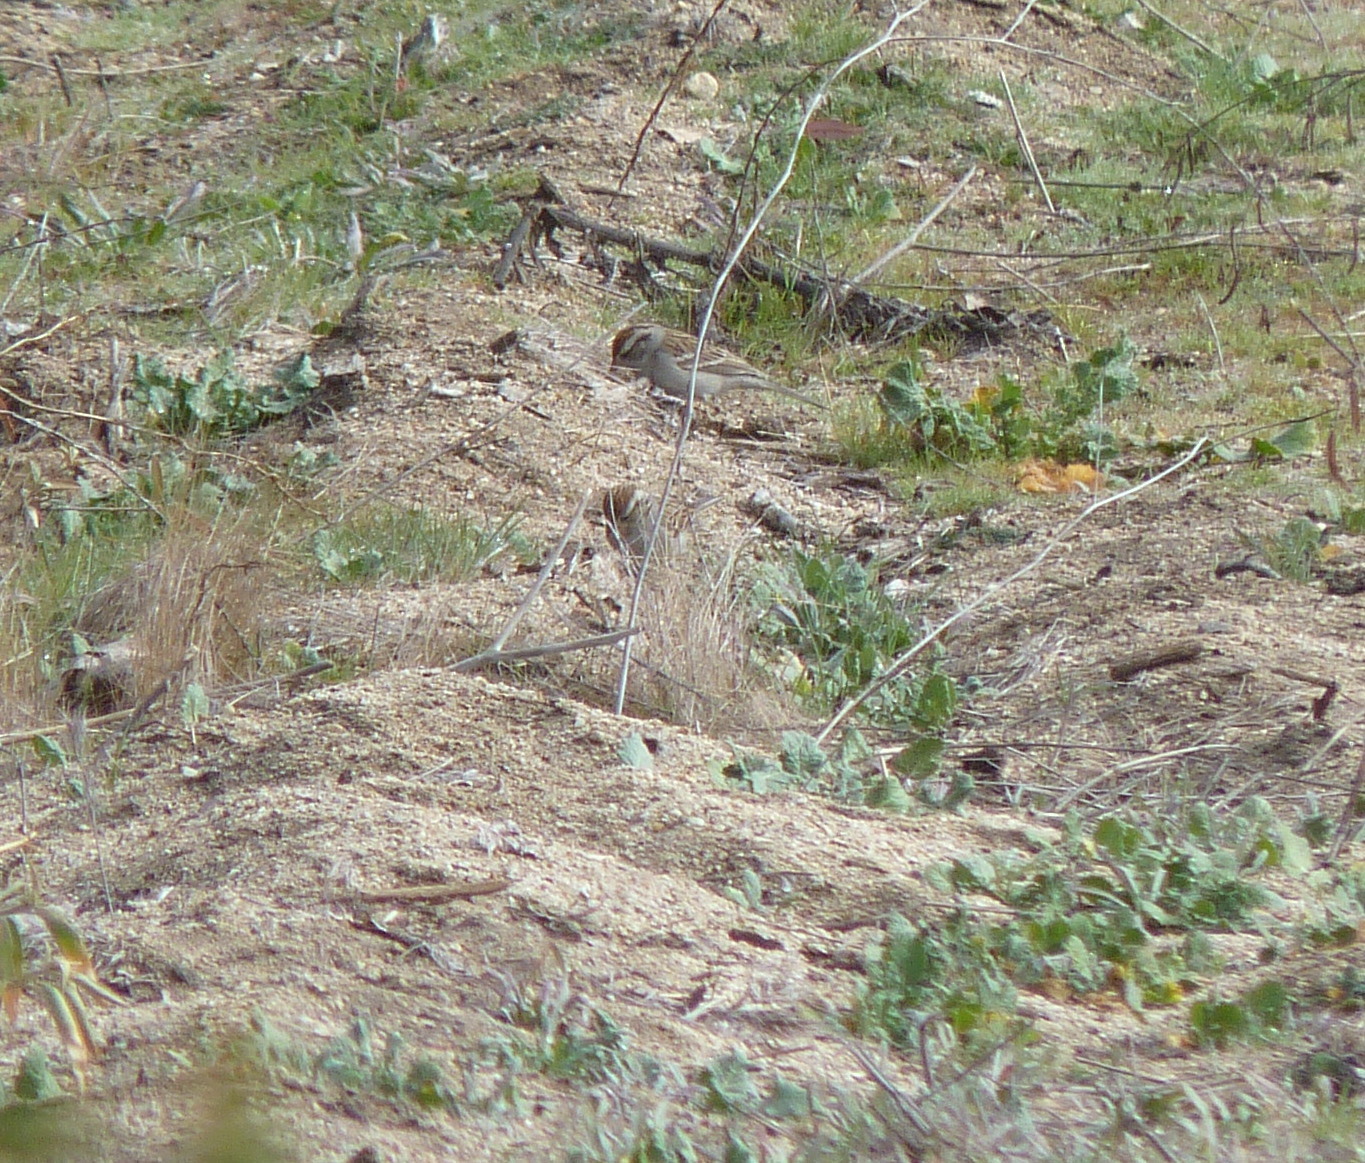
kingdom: Animalia
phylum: Chordata
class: Aves
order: Passeriformes
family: Passerellidae
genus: Spizella
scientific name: Spizella passerina
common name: Chipping sparrow
